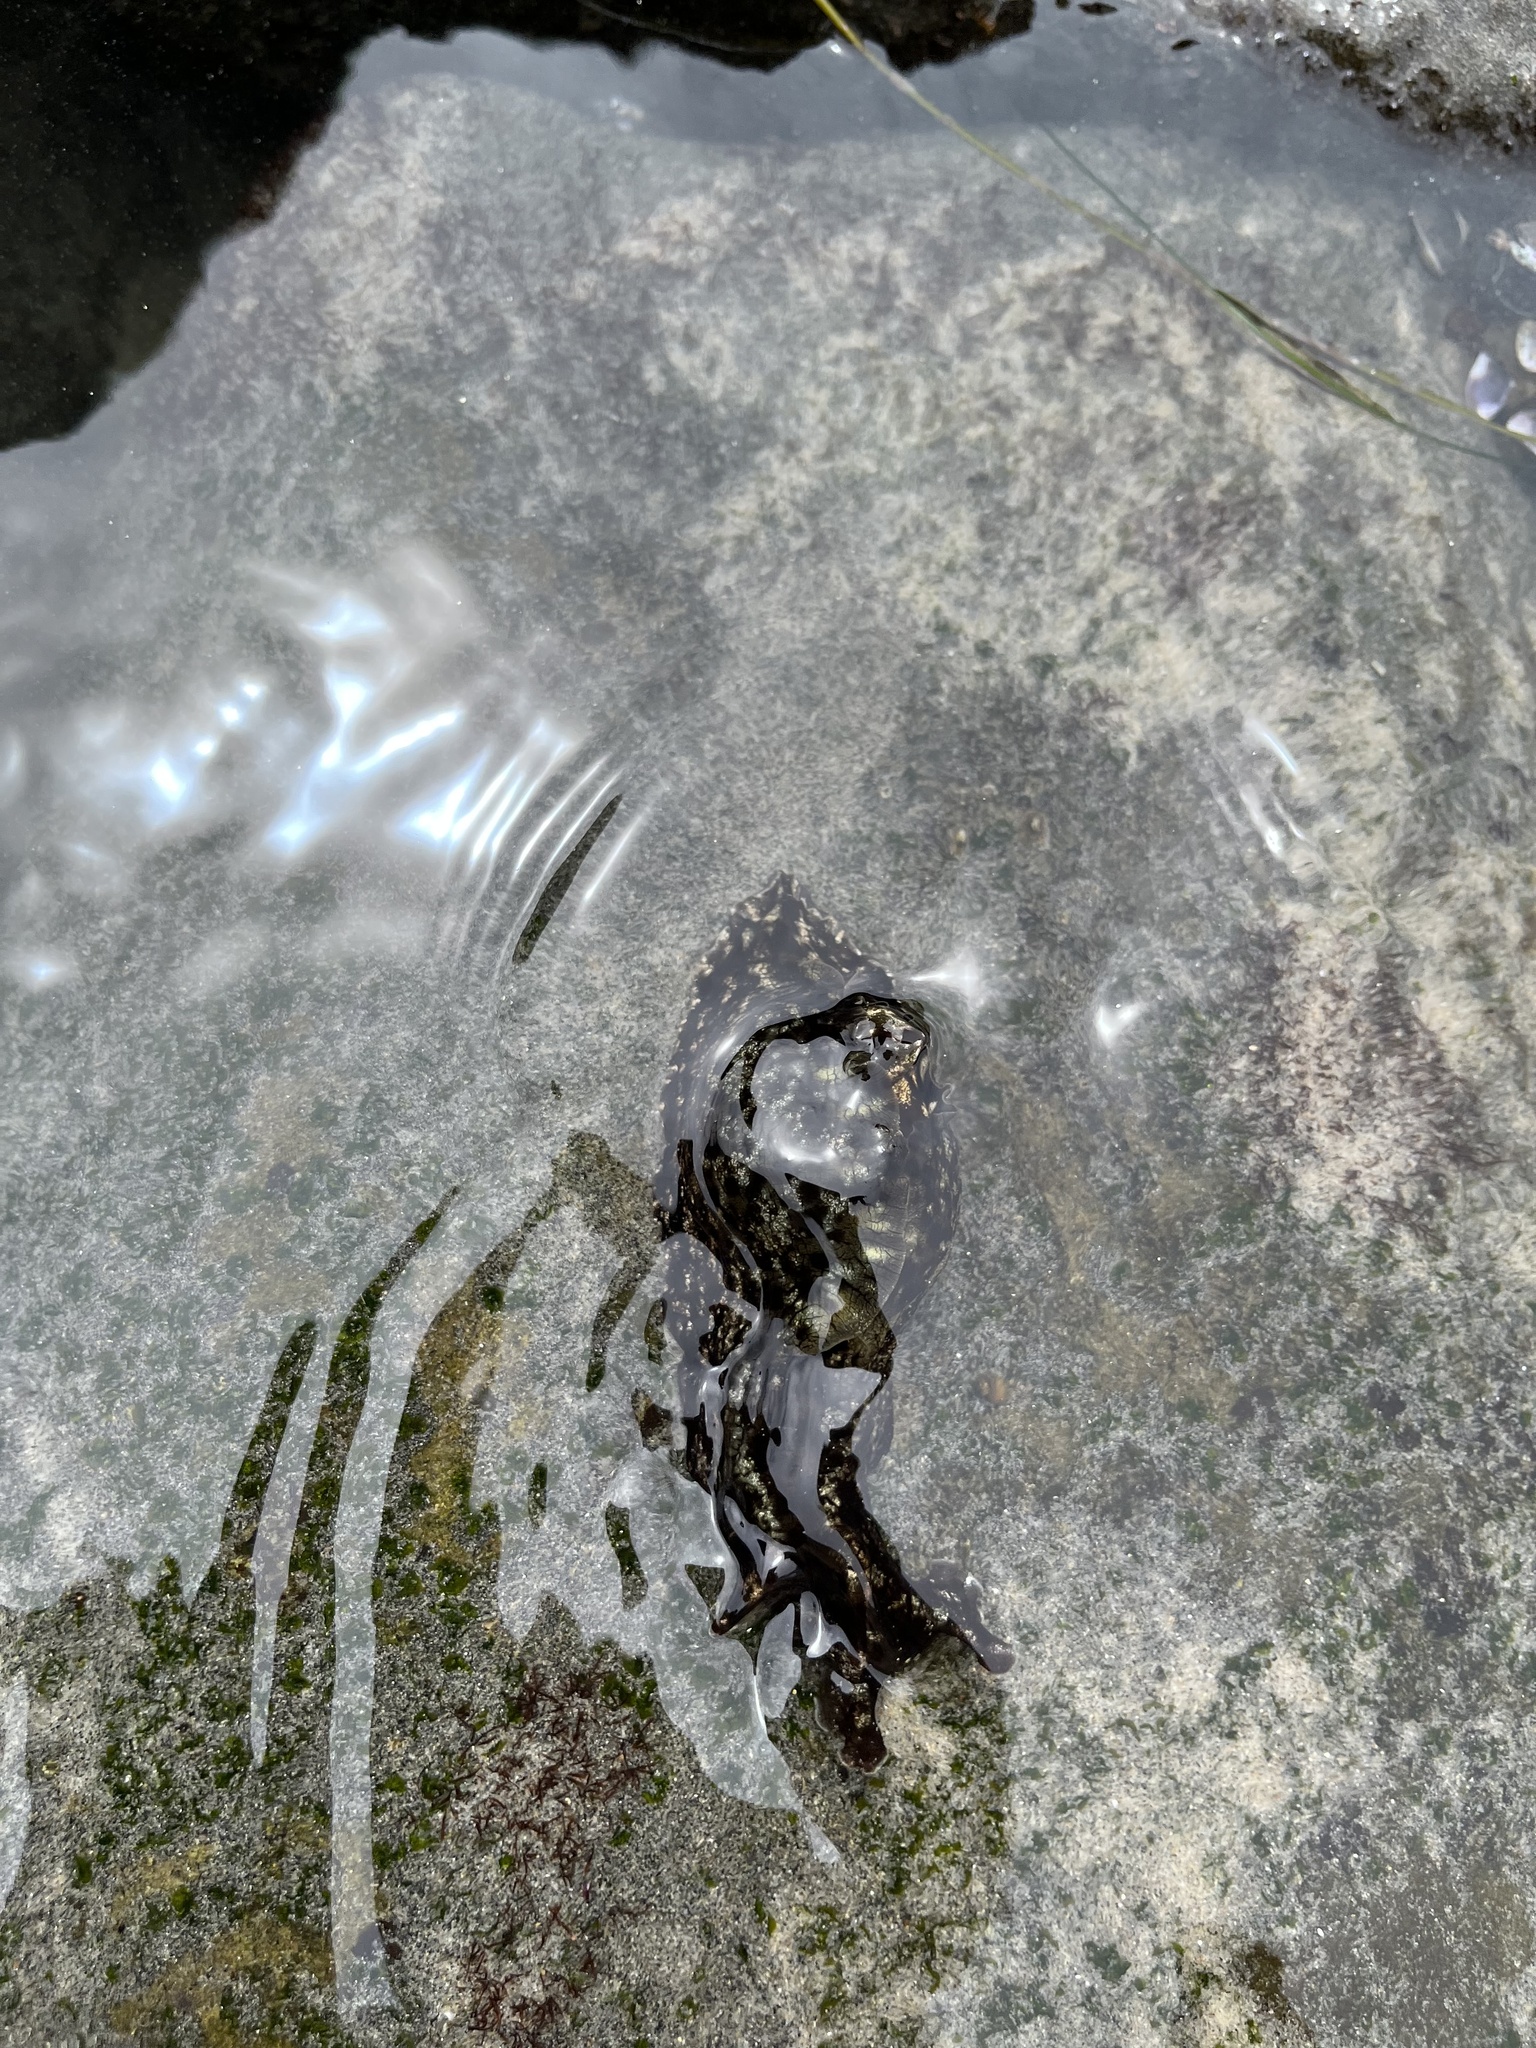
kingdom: Animalia
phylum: Mollusca
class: Gastropoda
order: Aplysiida
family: Aplysiidae
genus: Aplysia
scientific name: Aplysia californica
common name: California seahare
